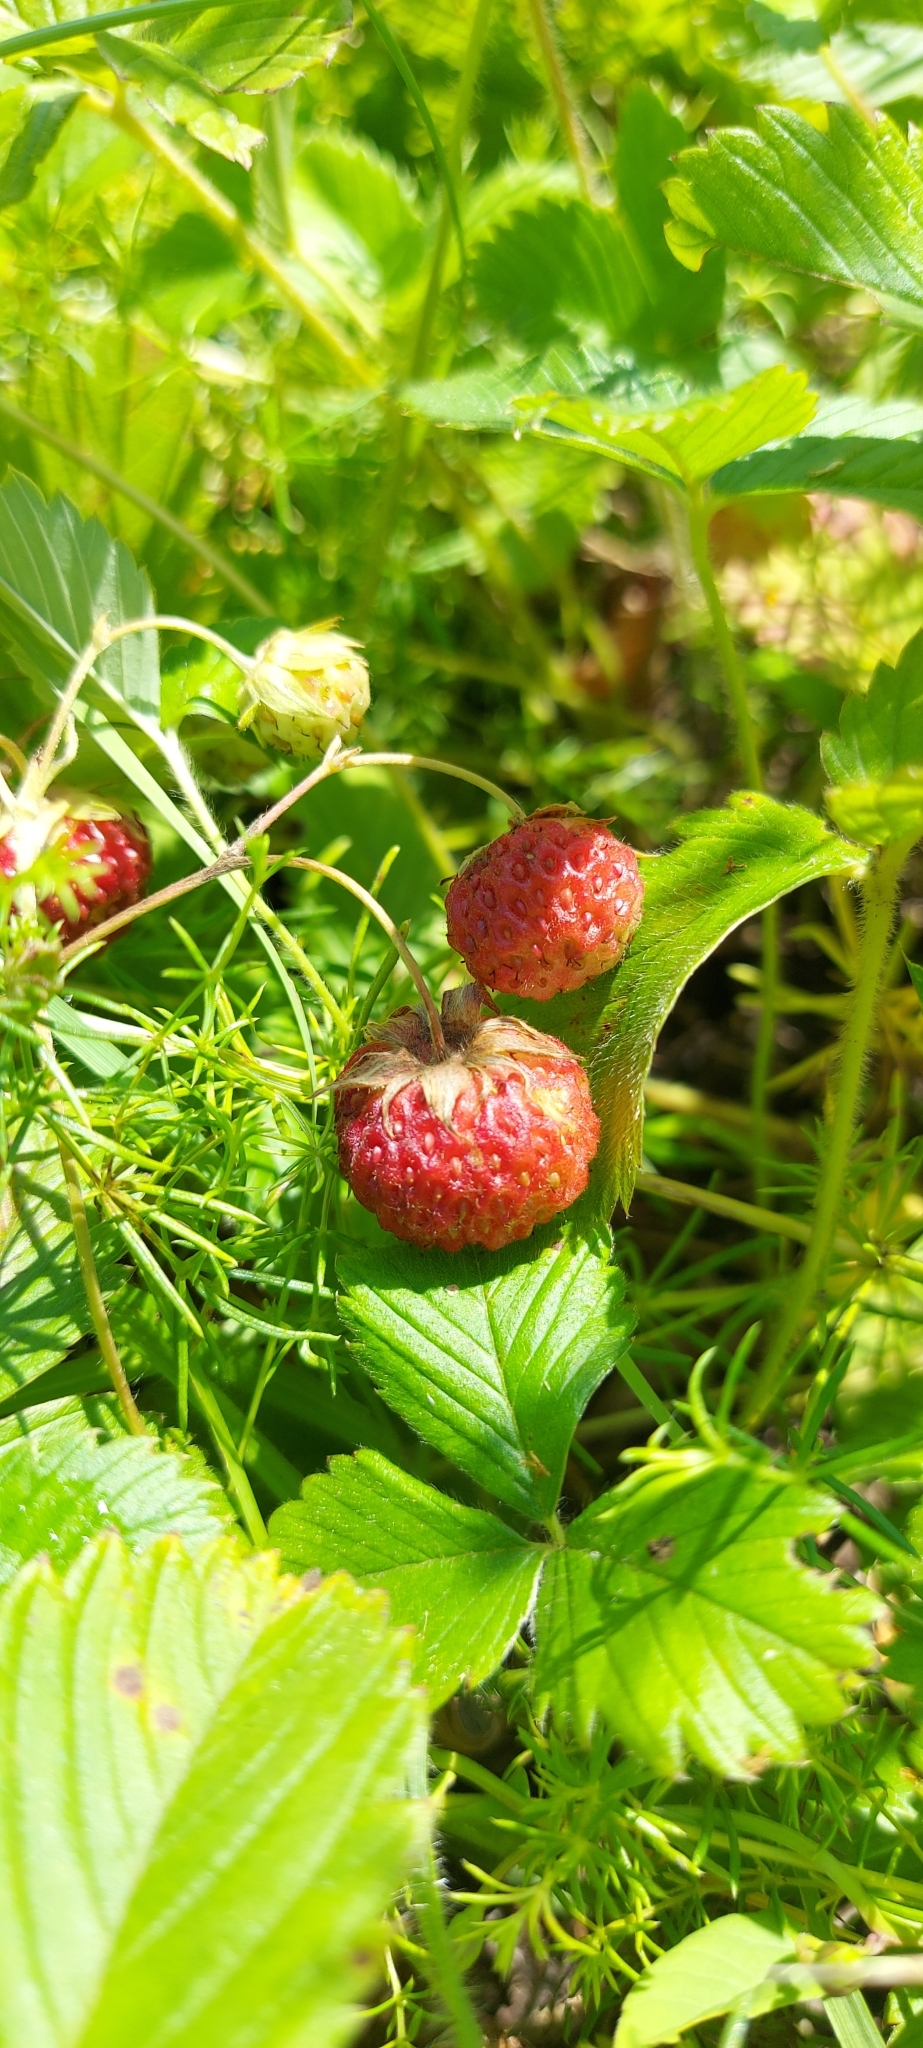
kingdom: Plantae
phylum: Tracheophyta
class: Magnoliopsida
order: Rosales
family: Rosaceae
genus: Fragaria
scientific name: Fragaria viridis
